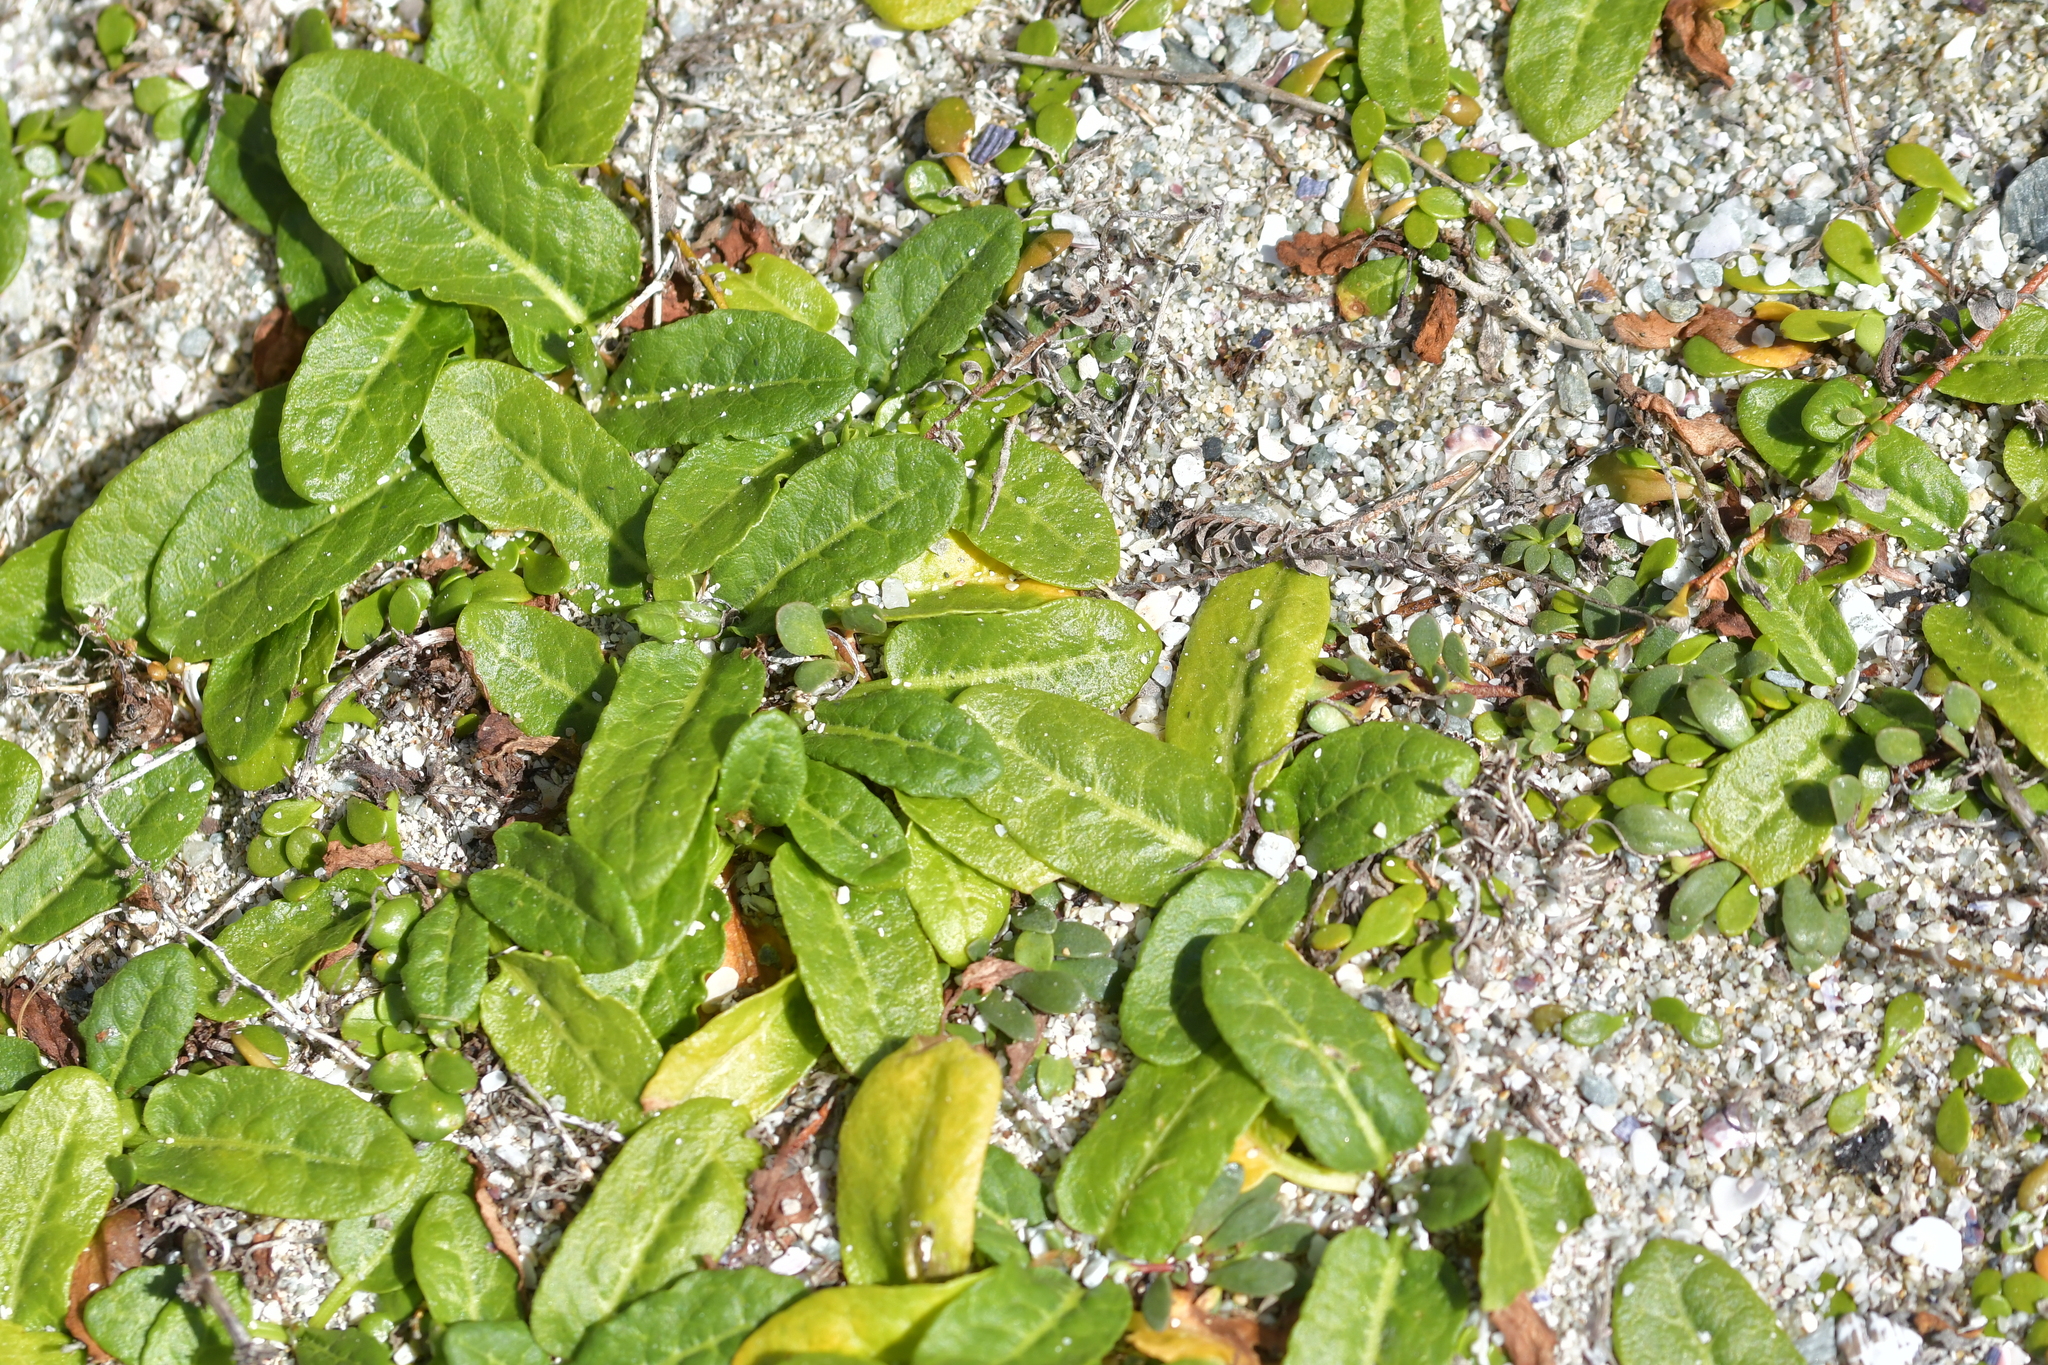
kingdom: Plantae
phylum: Tracheophyta
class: Magnoliopsida
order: Caryophyllales
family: Polygonaceae
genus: Rumex
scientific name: Rumex neglectus
